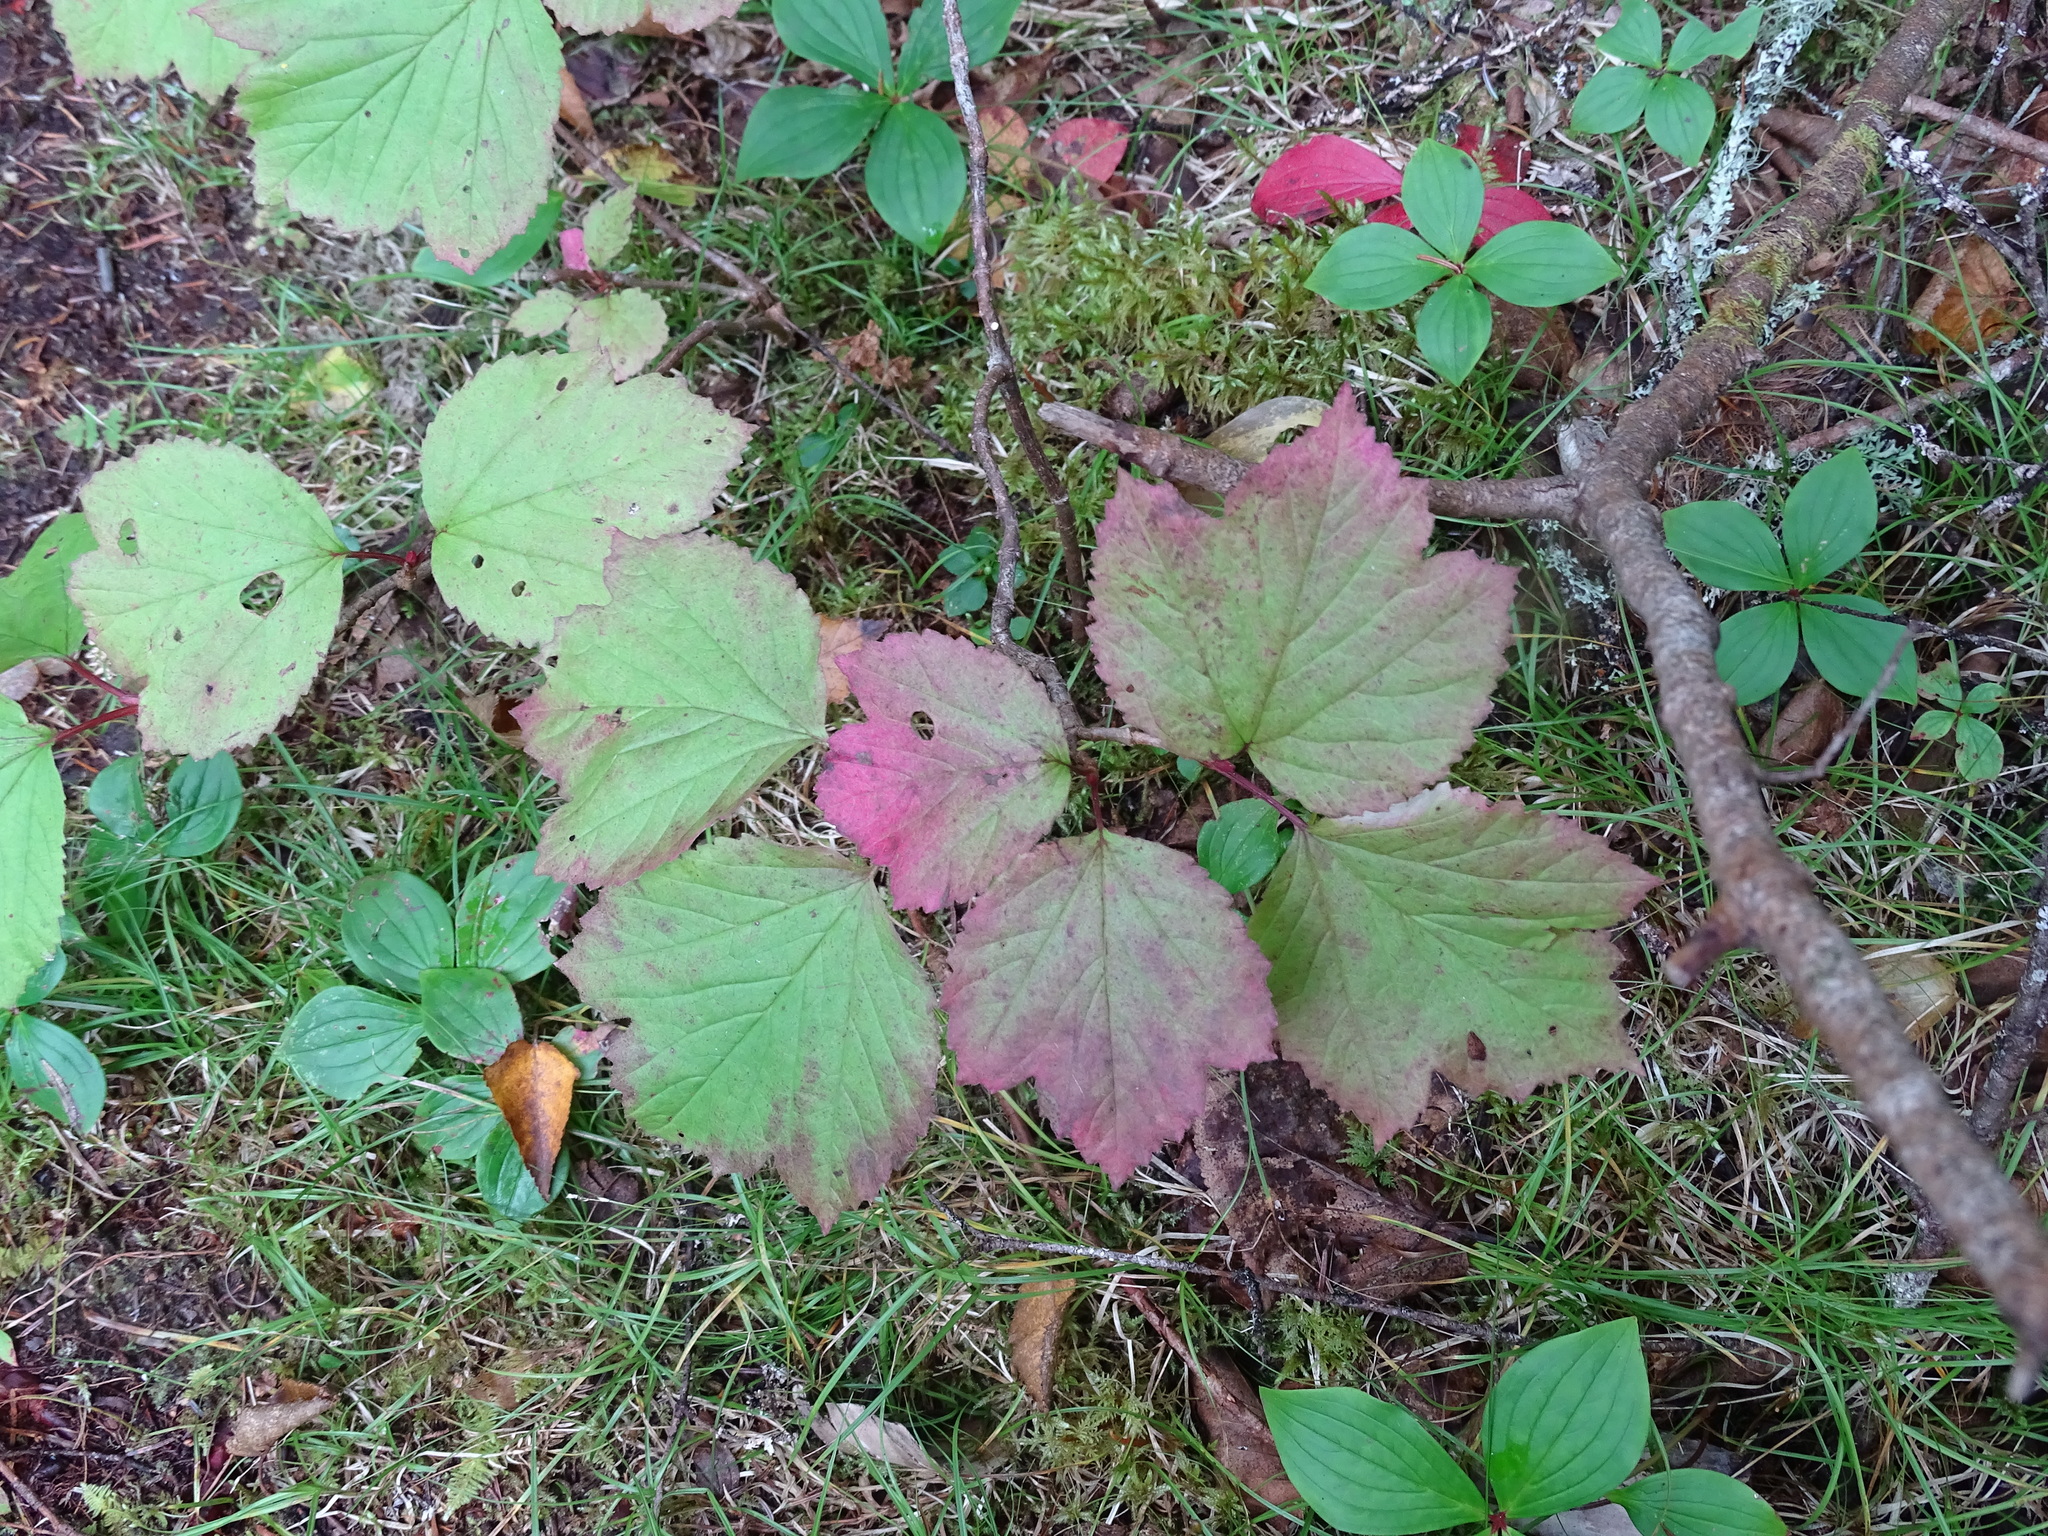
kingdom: Plantae
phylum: Tracheophyta
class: Magnoliopsida
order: Dipsacales
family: Viburnaceae
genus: Viburnum
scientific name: Viburnum edule
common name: Mooseberry
